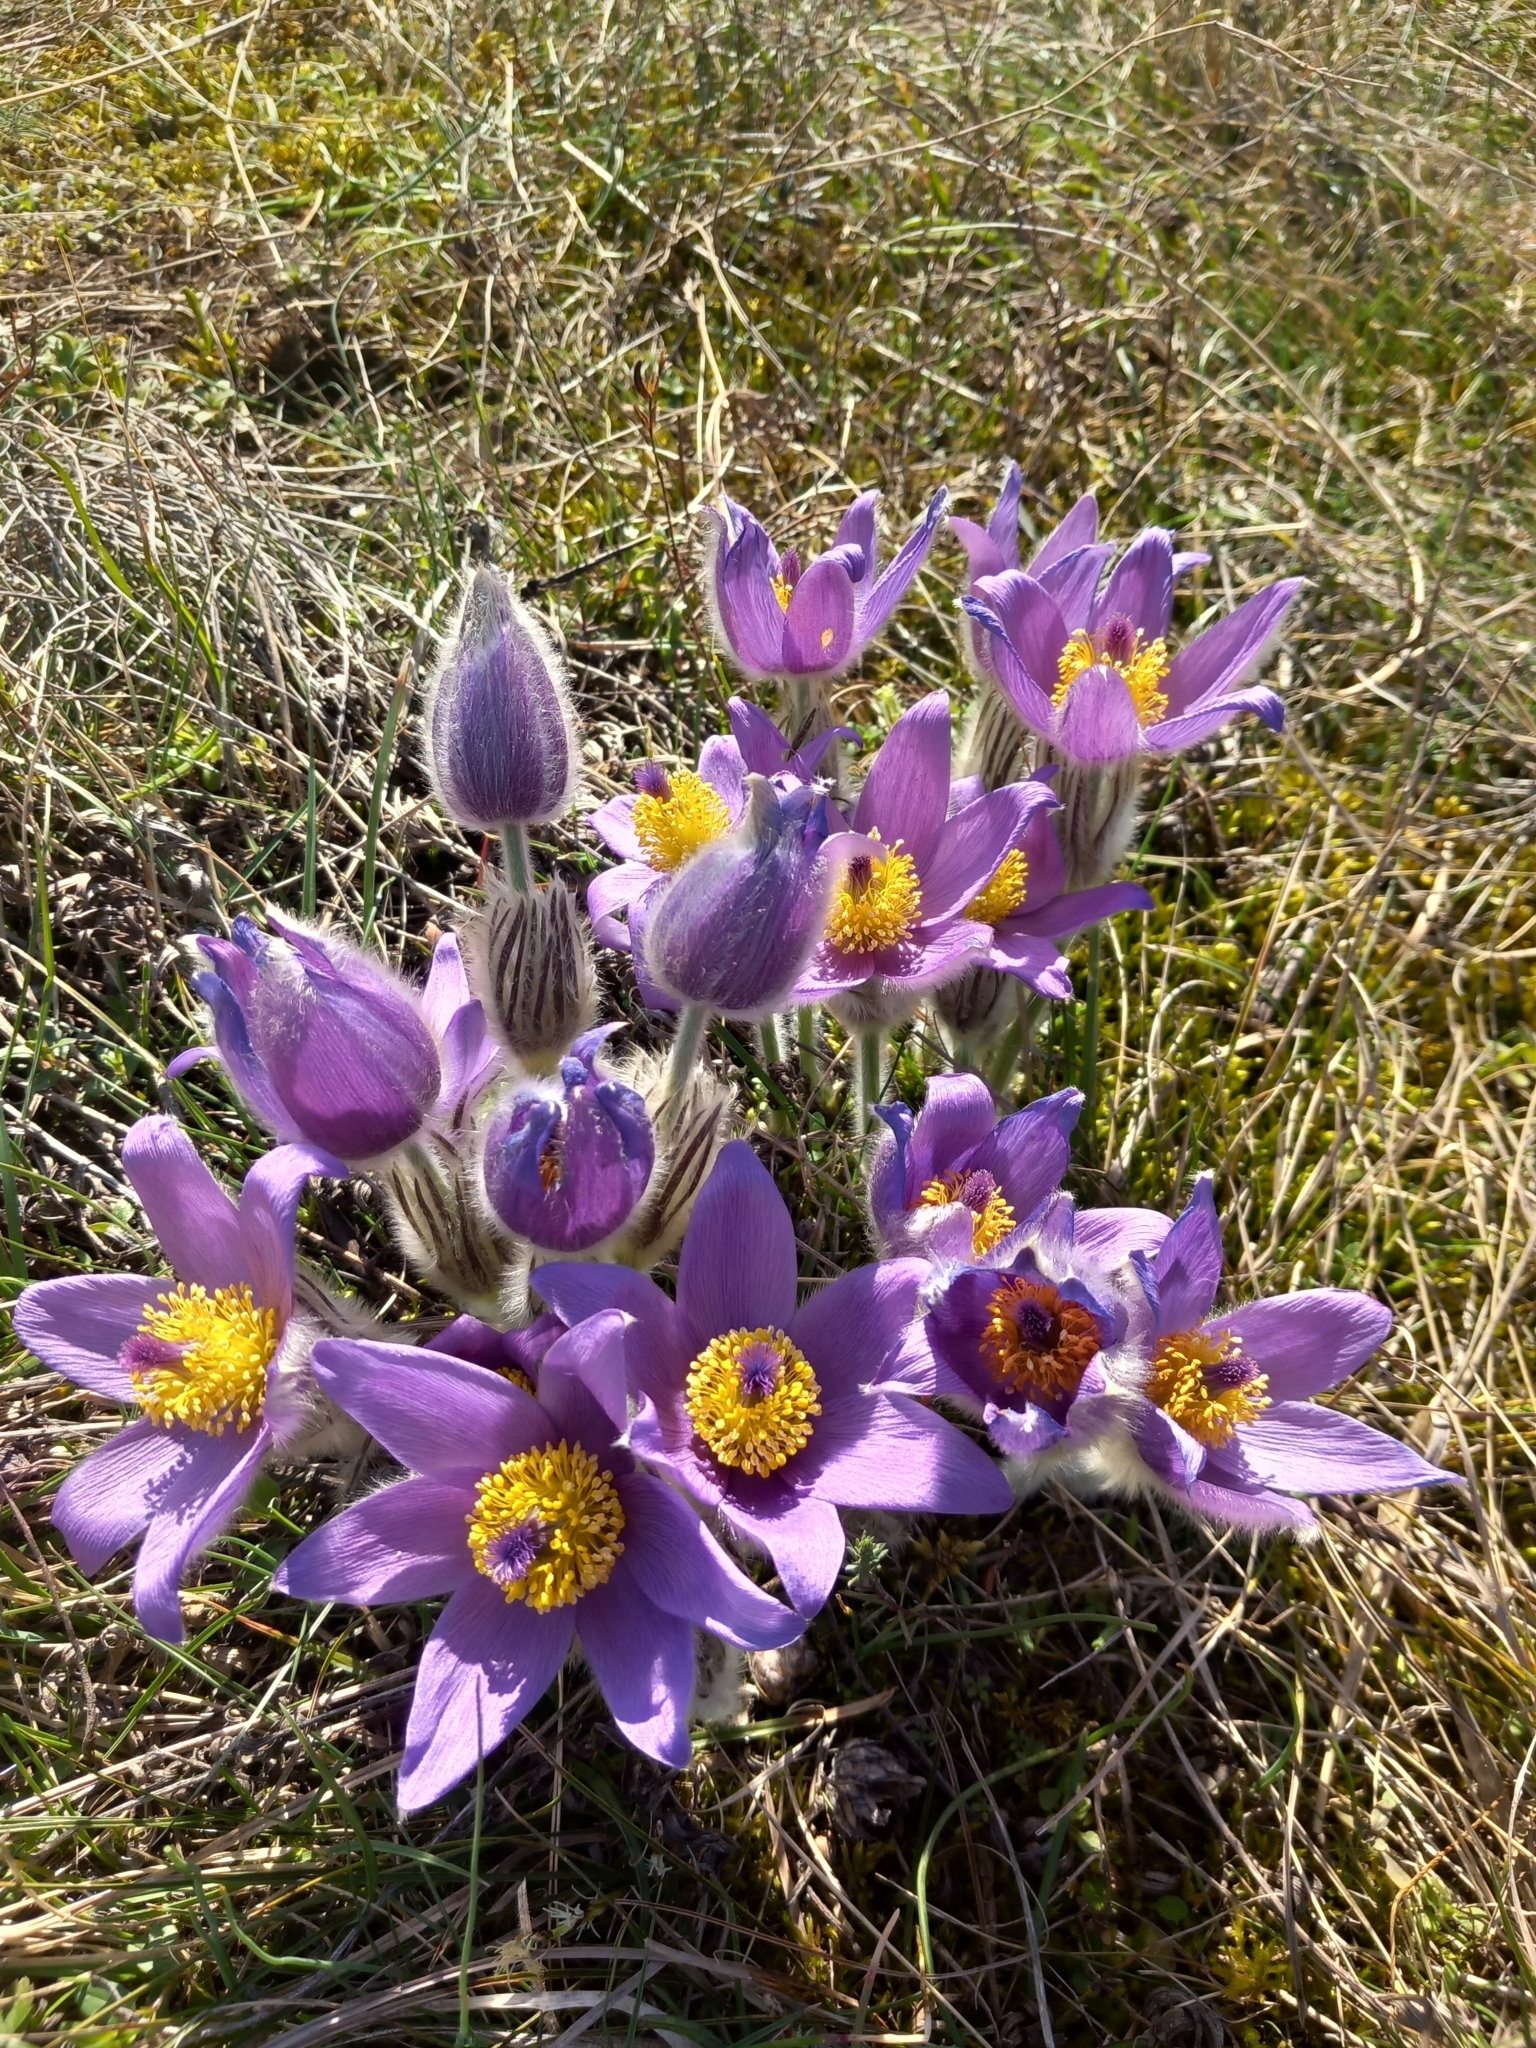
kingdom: Plantae
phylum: Tracheophyta
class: Magnoliopsida
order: Ranunculales
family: Ranunculaceae
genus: Pulsatilla
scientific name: Pulsatilla grandis
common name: Greater pasque flower
